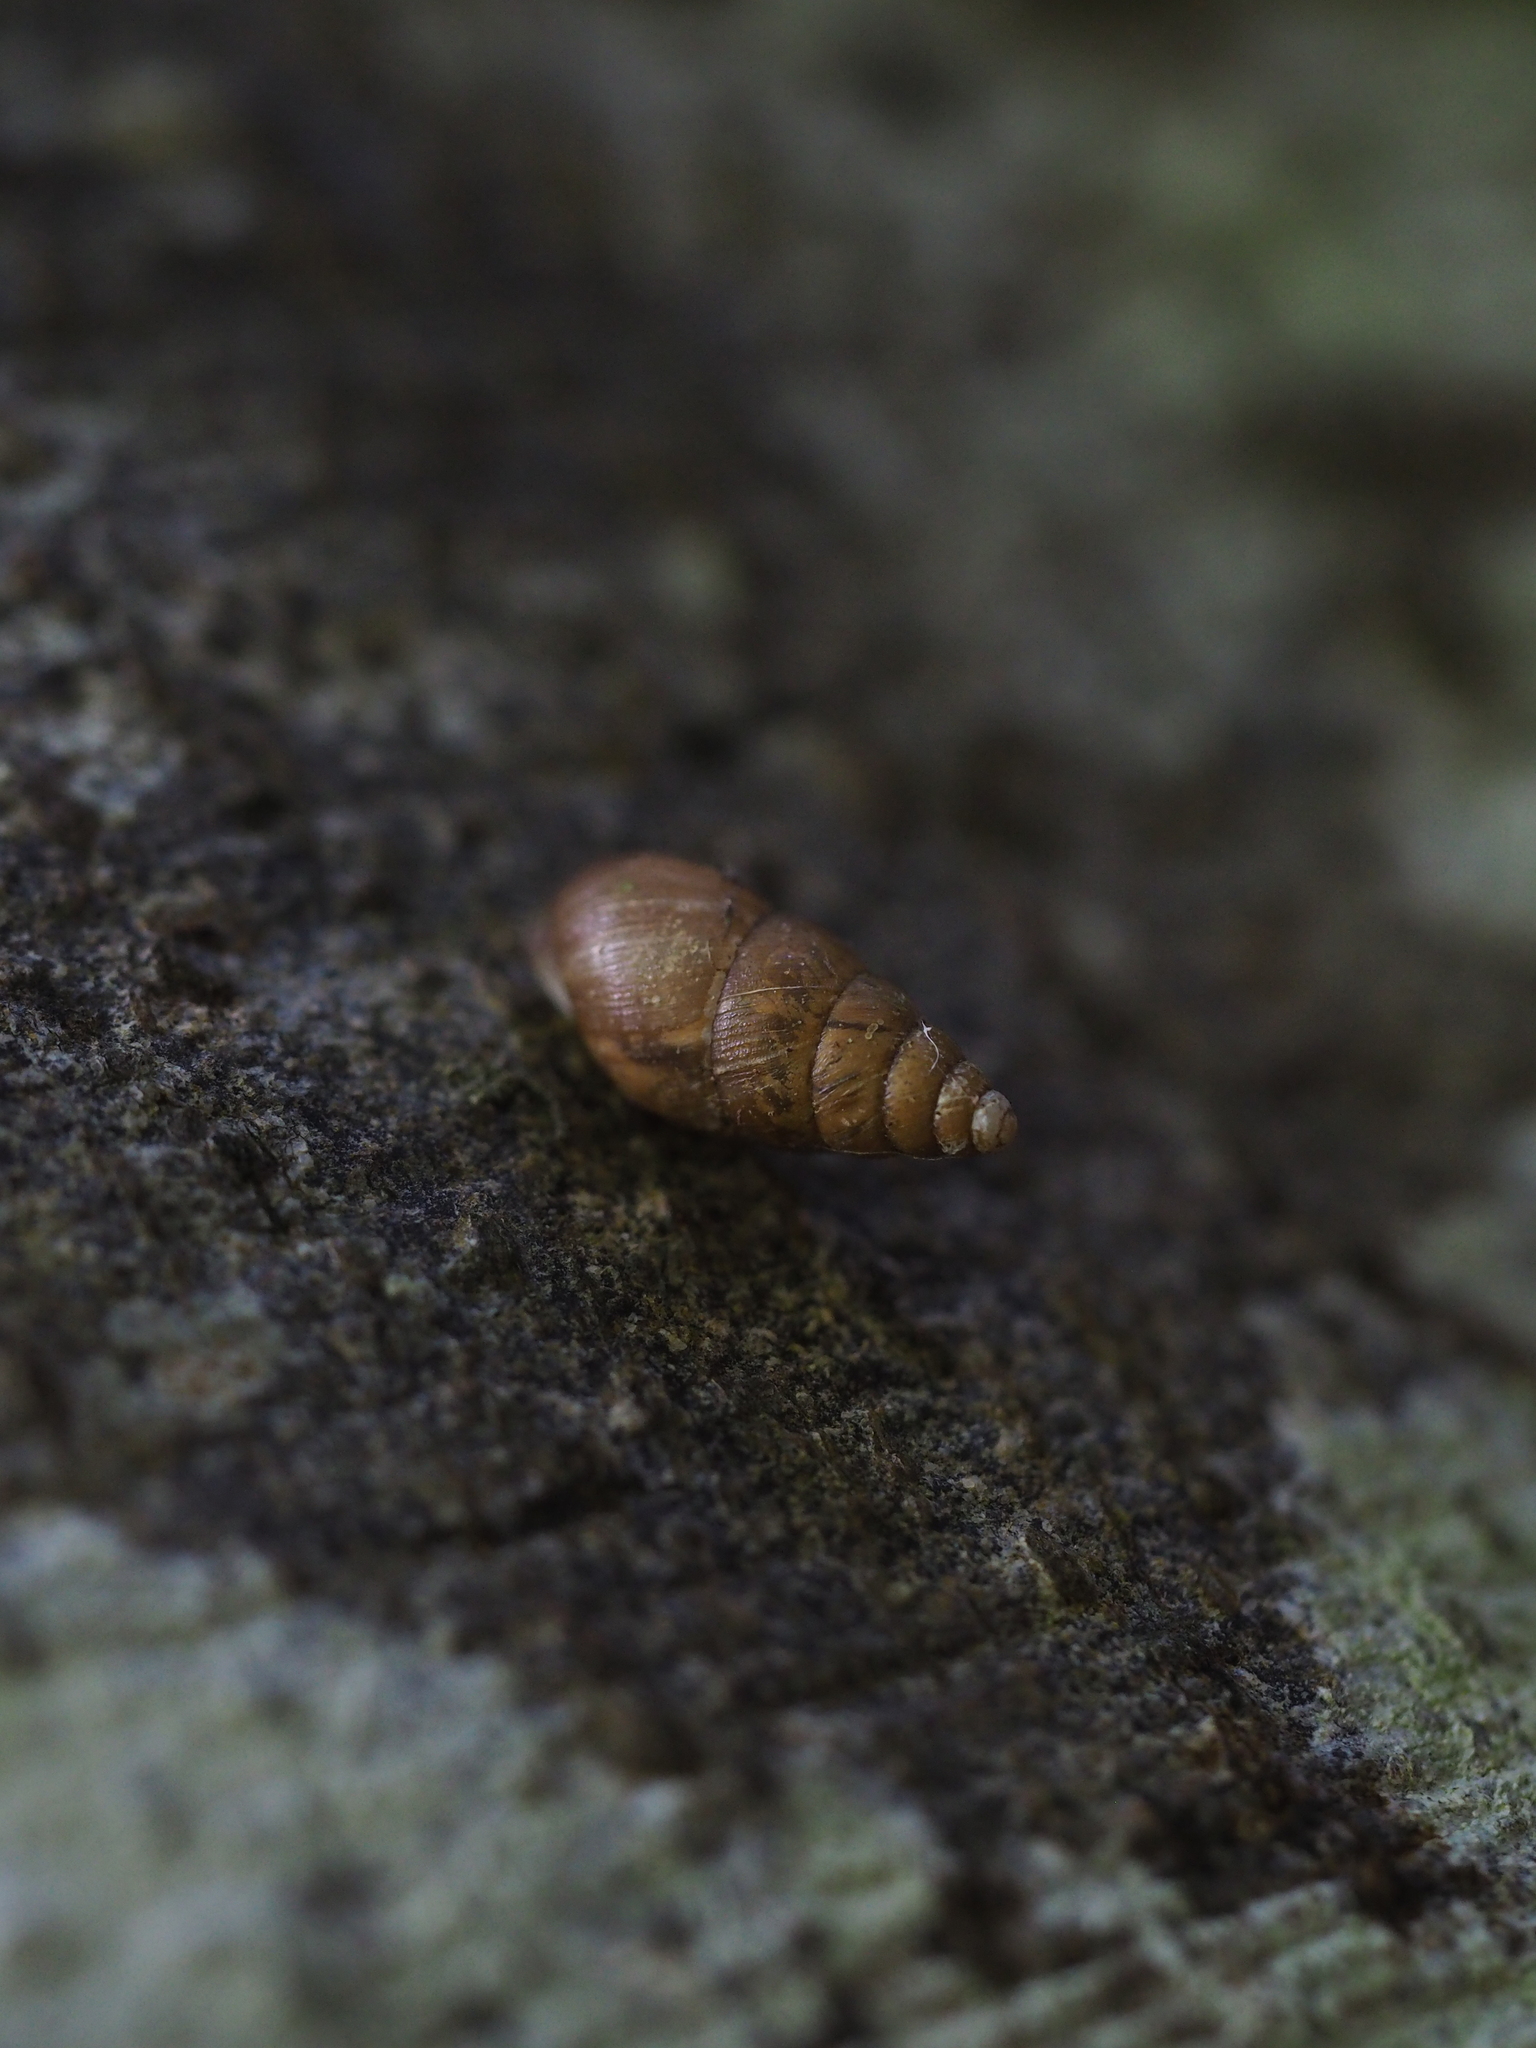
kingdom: Animalia
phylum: Mollusca
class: Gastropoda
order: Stylommatophora
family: Enidae
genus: Ena
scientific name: Ena montana
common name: Mountain bulin
